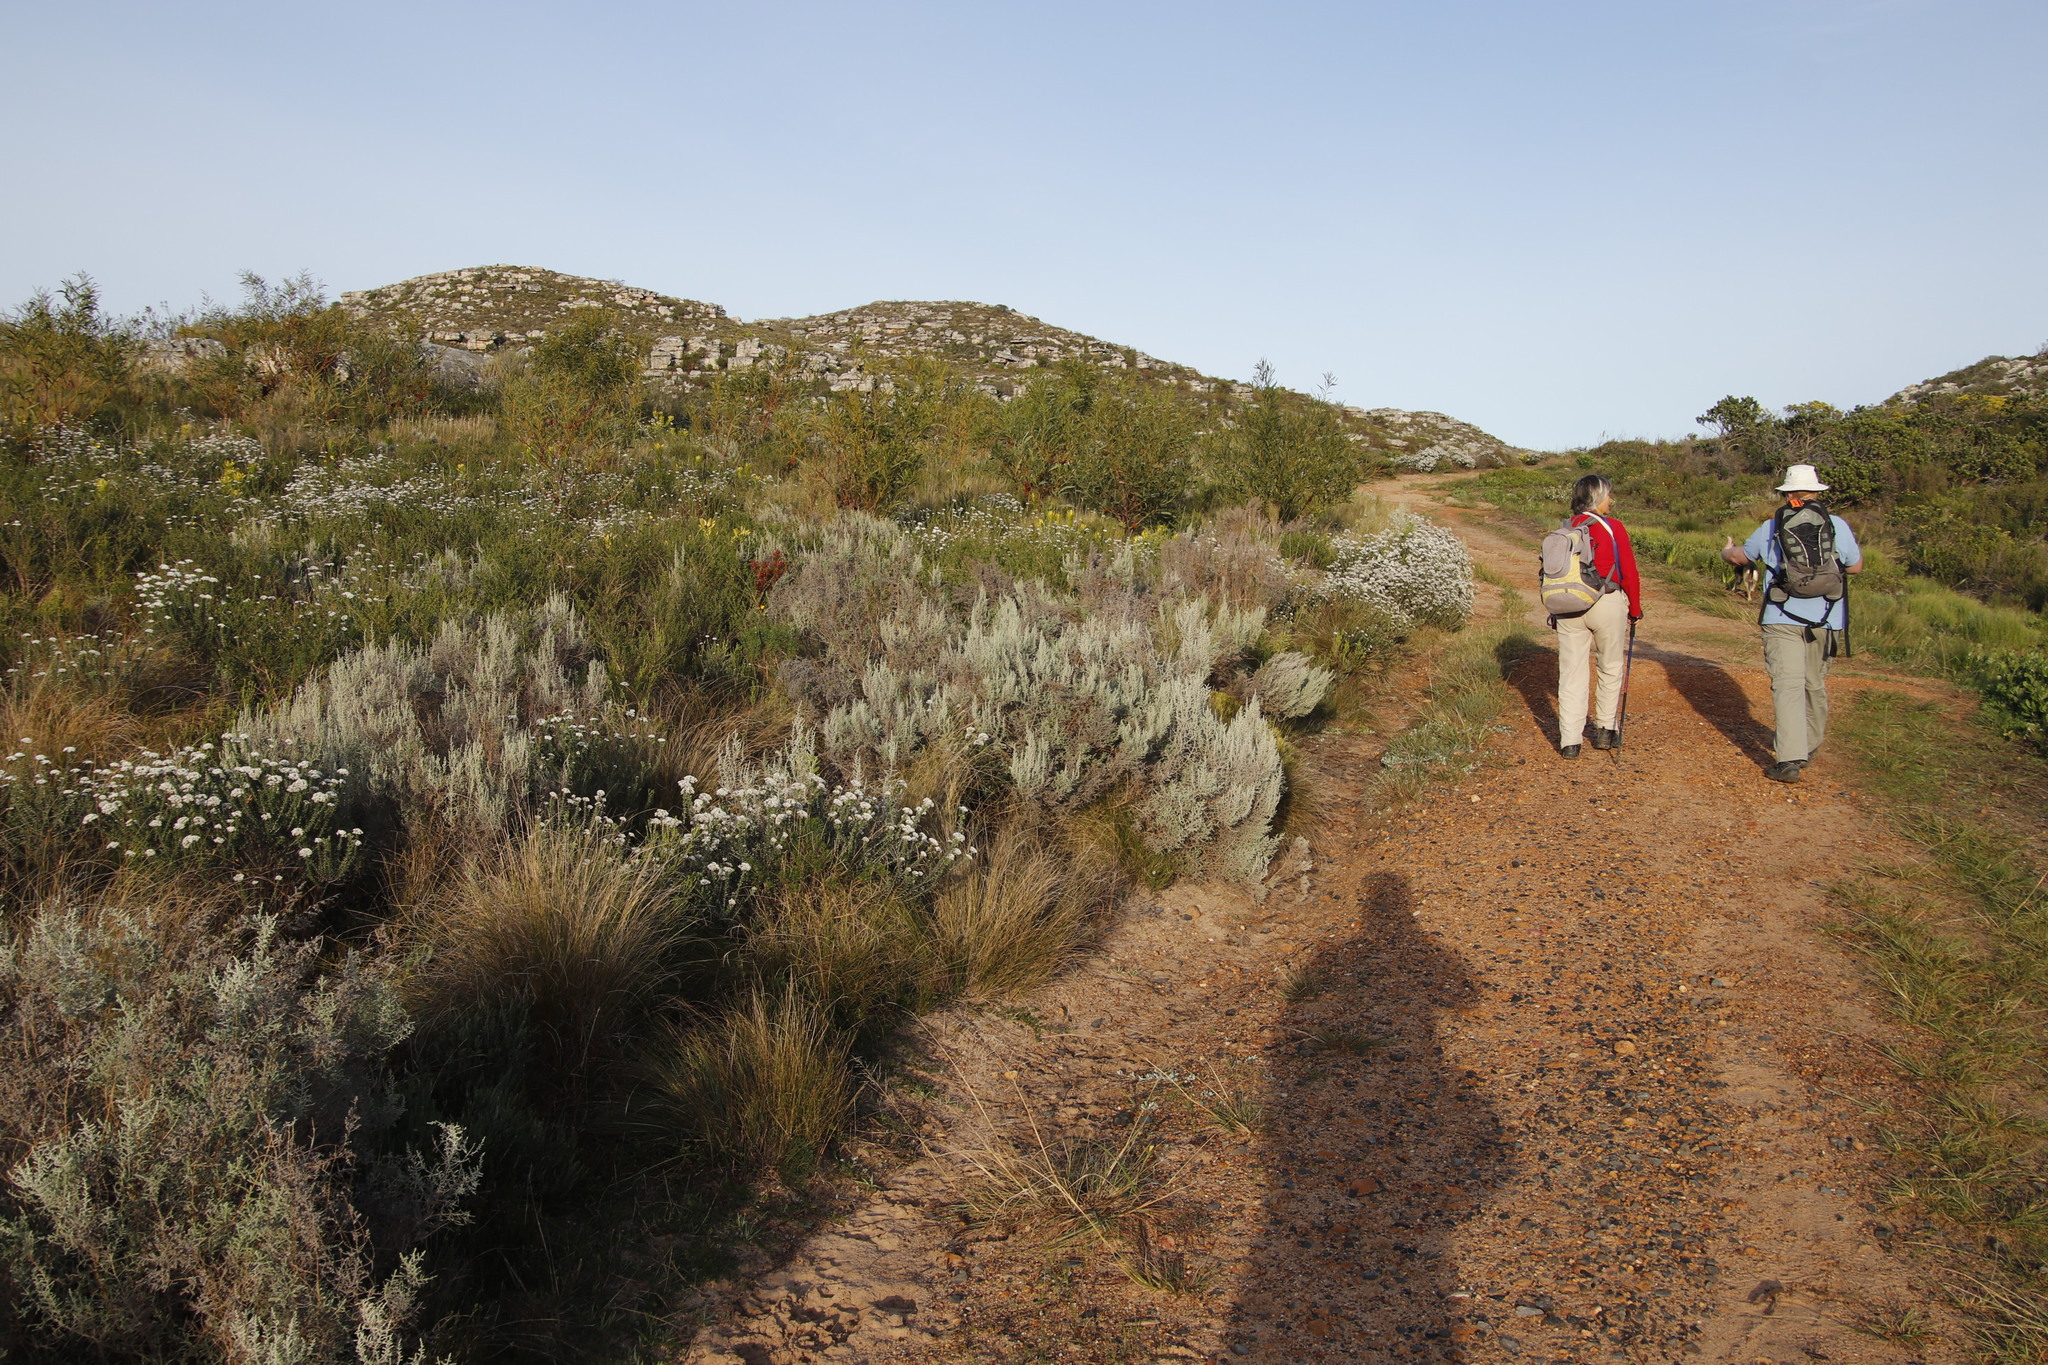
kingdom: Plantae
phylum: Tracheophyta
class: Magnoliopsida
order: Asterales
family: Asteraceae
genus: Seriphium
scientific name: Seriphium plumosum
